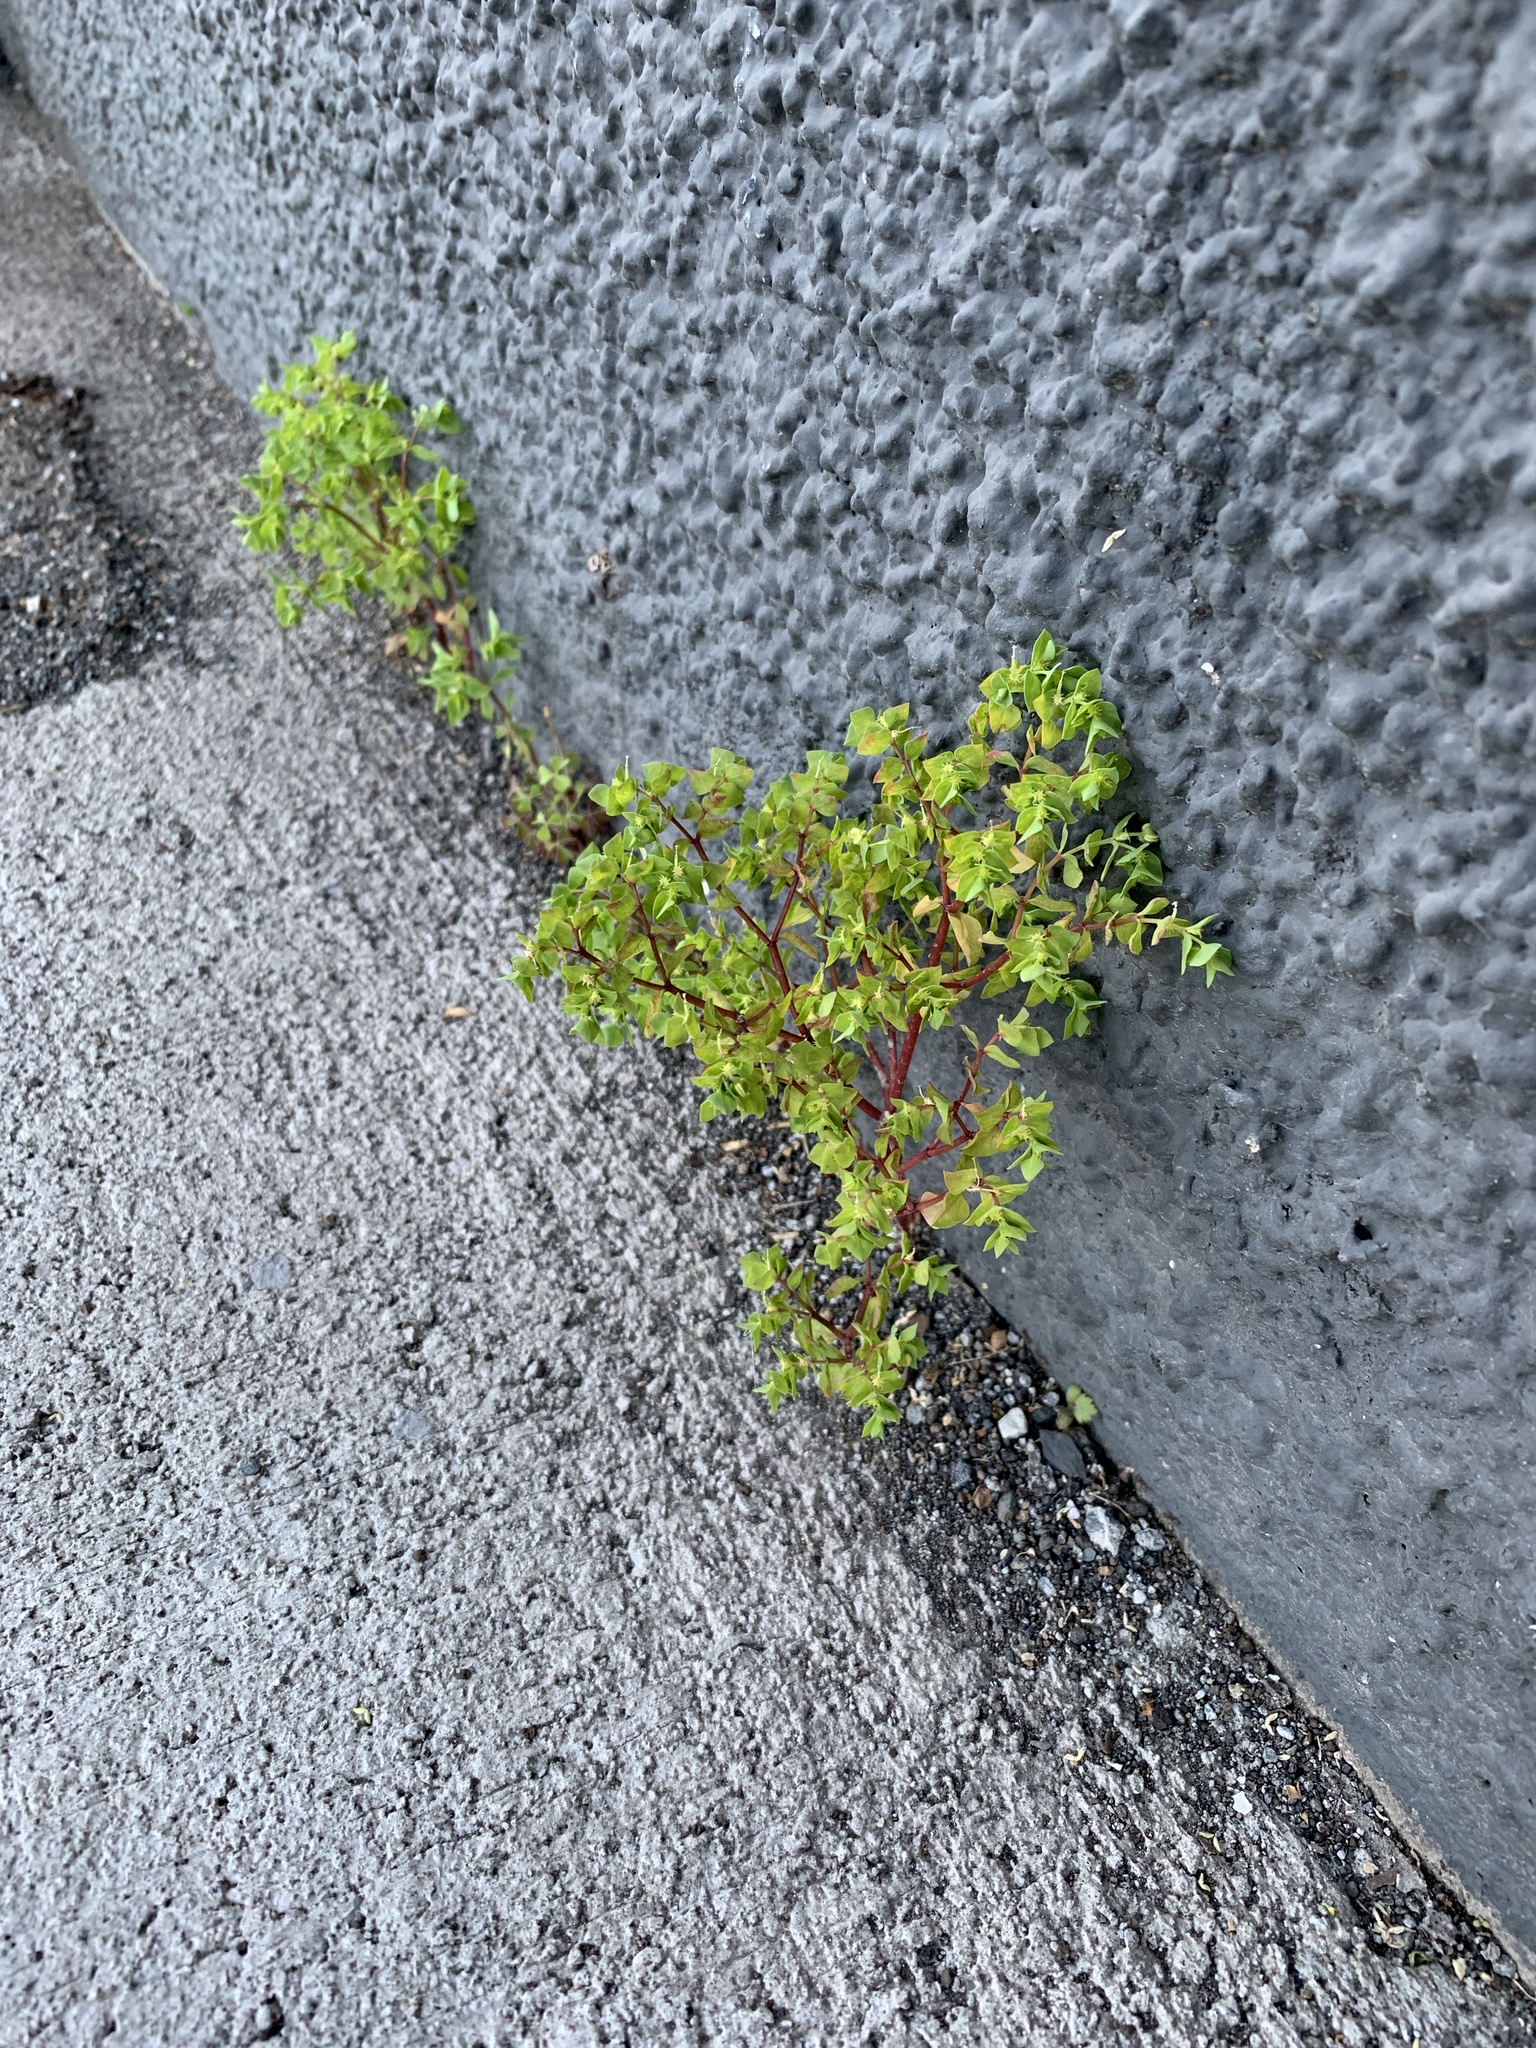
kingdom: Plantae
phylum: Tracheophyta
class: Magnoliopsida
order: Malpighiales
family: Euphorbiaceae
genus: Euphorbia
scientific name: Euphorbia peplus
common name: Petty spurge
